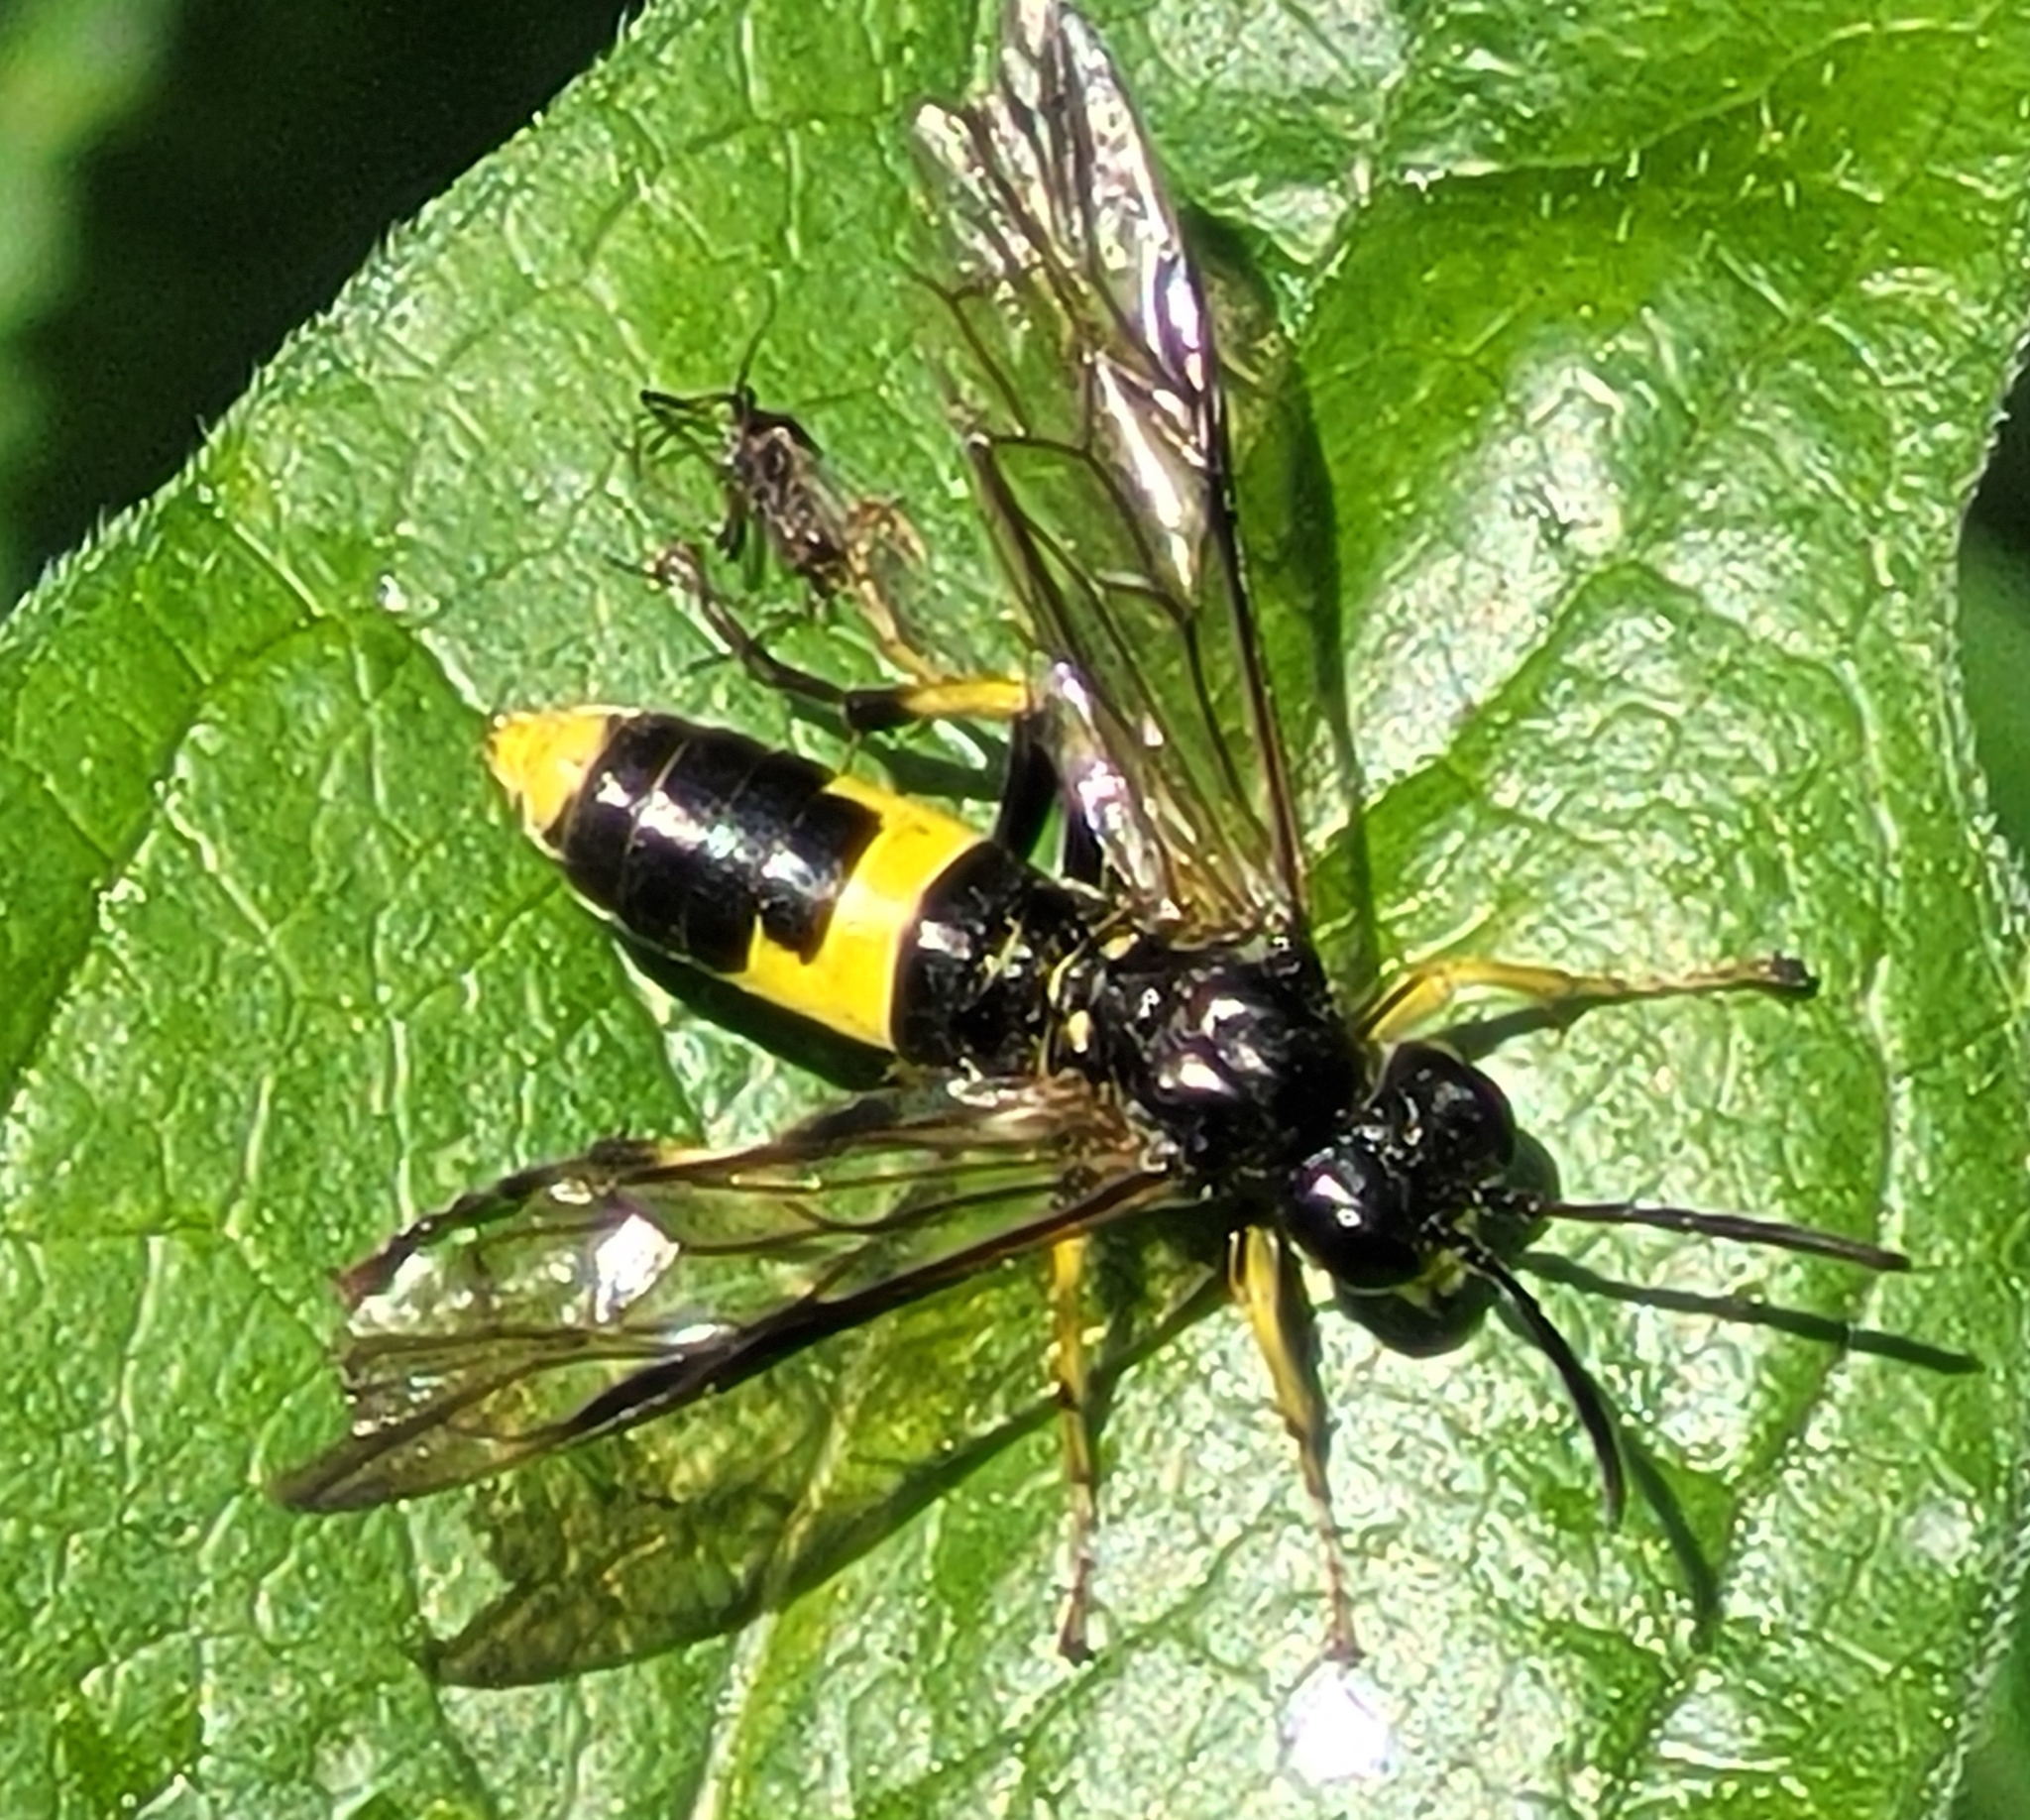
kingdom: Animalia
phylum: Arthropoda
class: Insecta
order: Hymenoptera
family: Tenthredinidae
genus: Tenthredo
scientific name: Tenthredo temula
